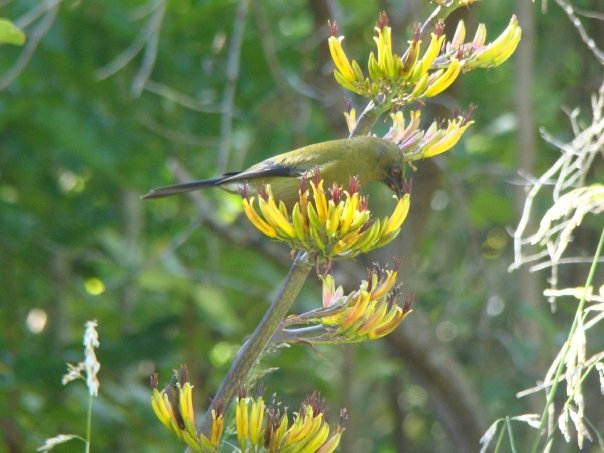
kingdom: Animalia
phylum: Chordata
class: Aves
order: Passeriformes
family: Meliphagidae
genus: Anthornis
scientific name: Anthornis melanura
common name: New zealand bellbird
